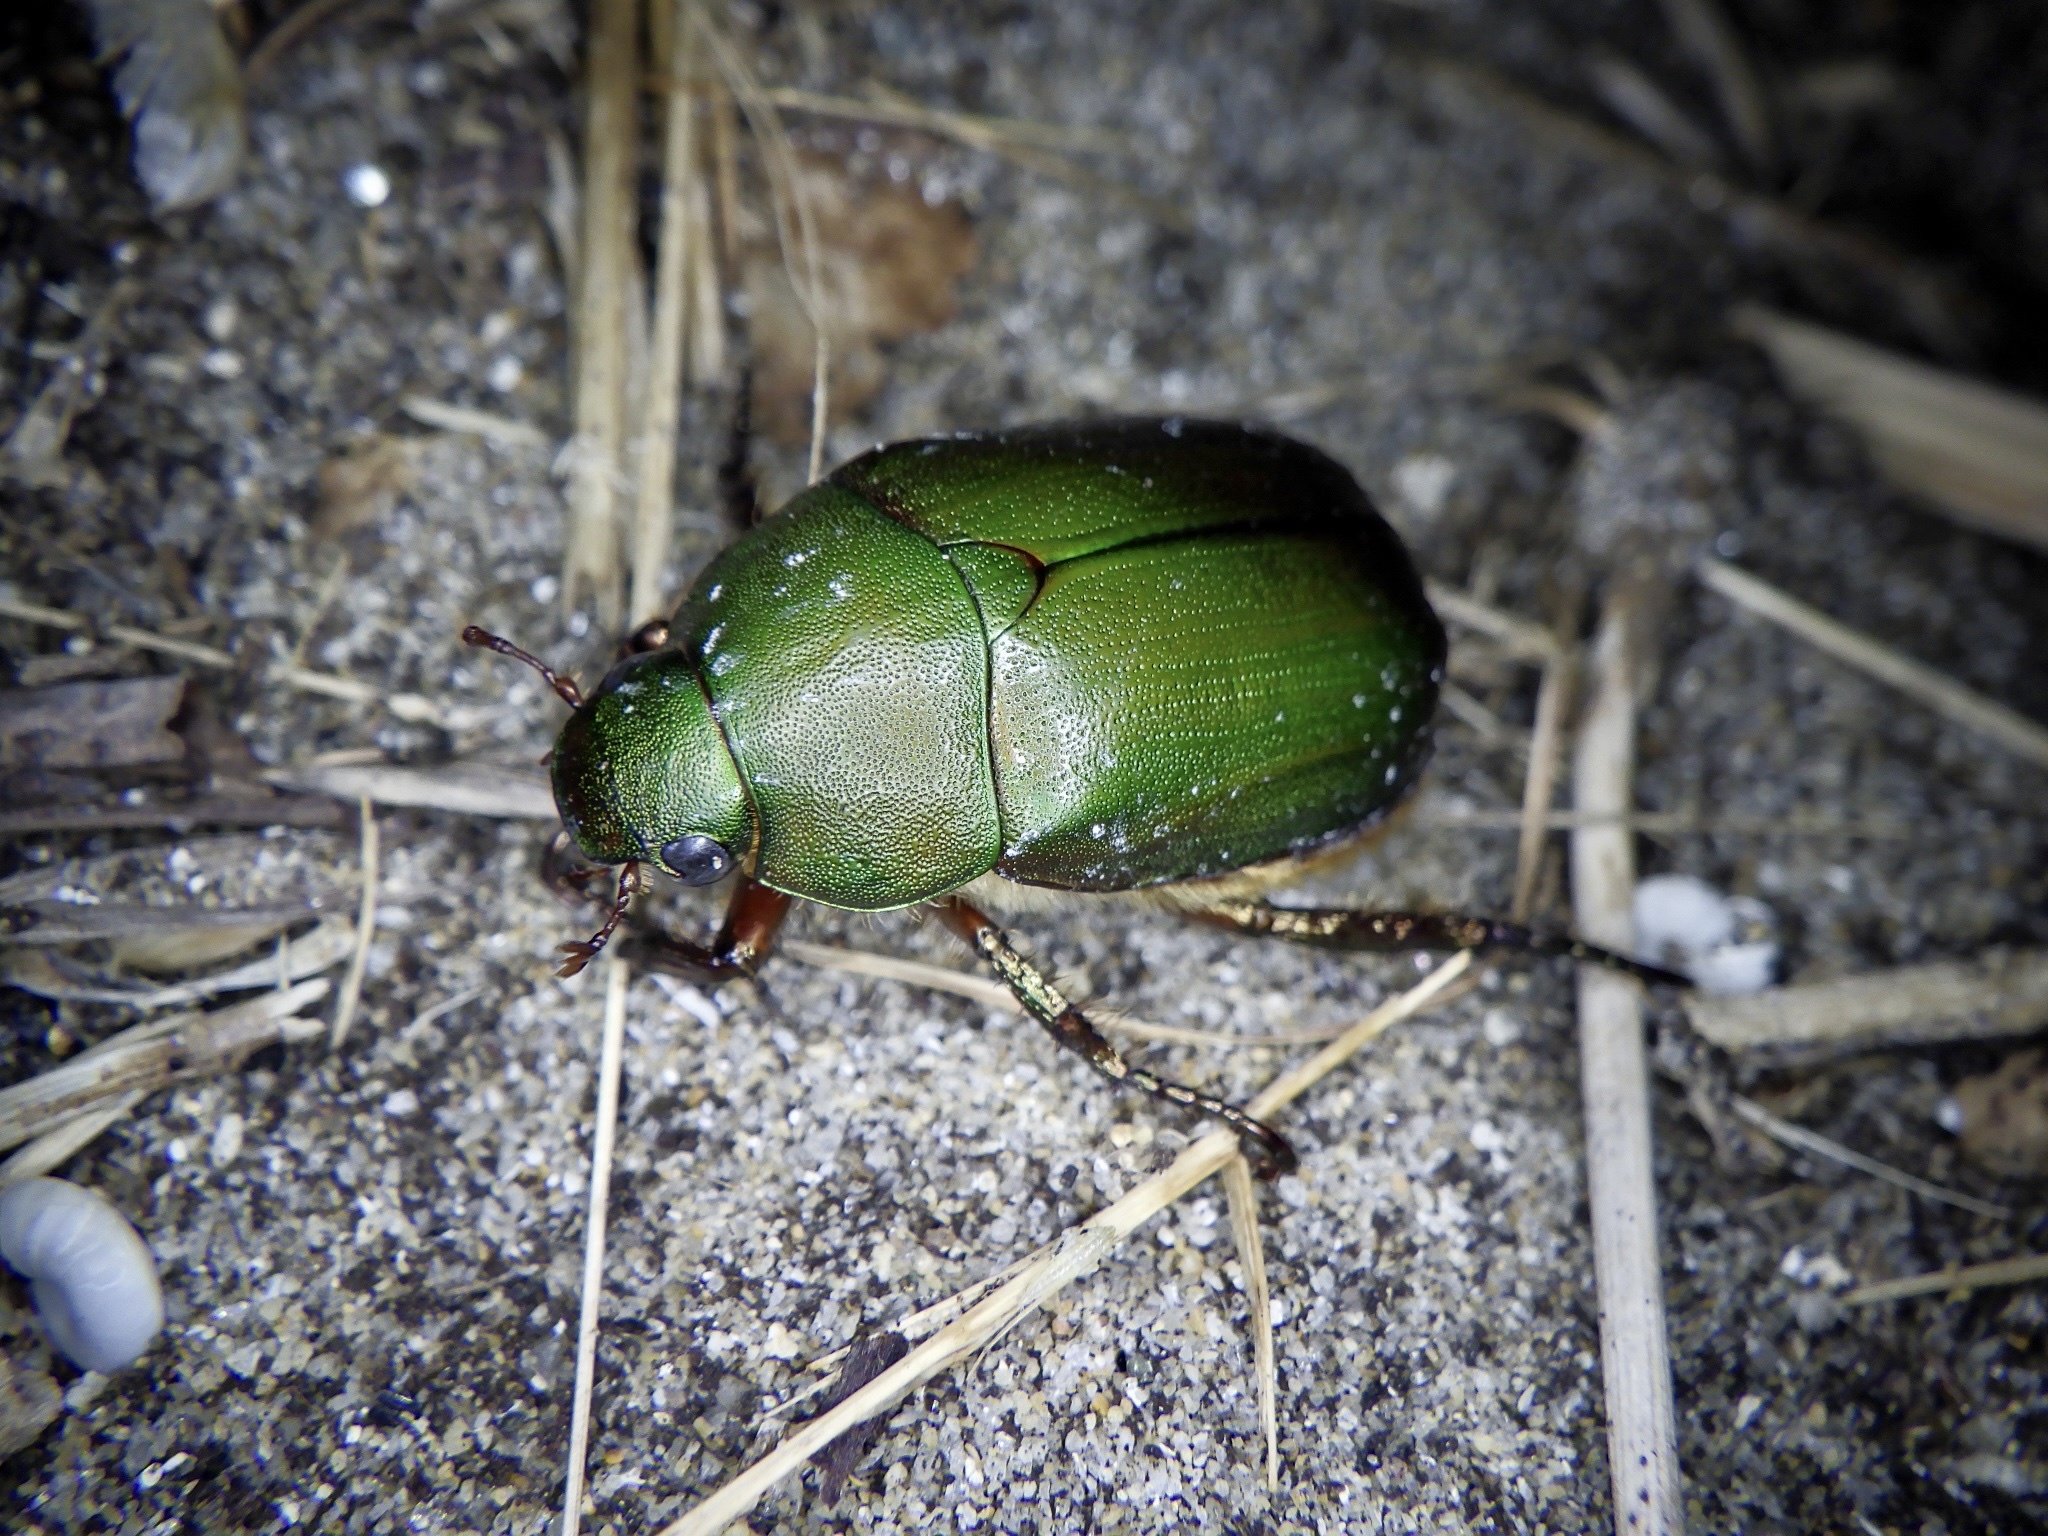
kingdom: Animalia
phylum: Arthropoda
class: Insecta
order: Coleoptera
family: Scarabaeidae
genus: Anomala
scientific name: Anomala albopilosa
